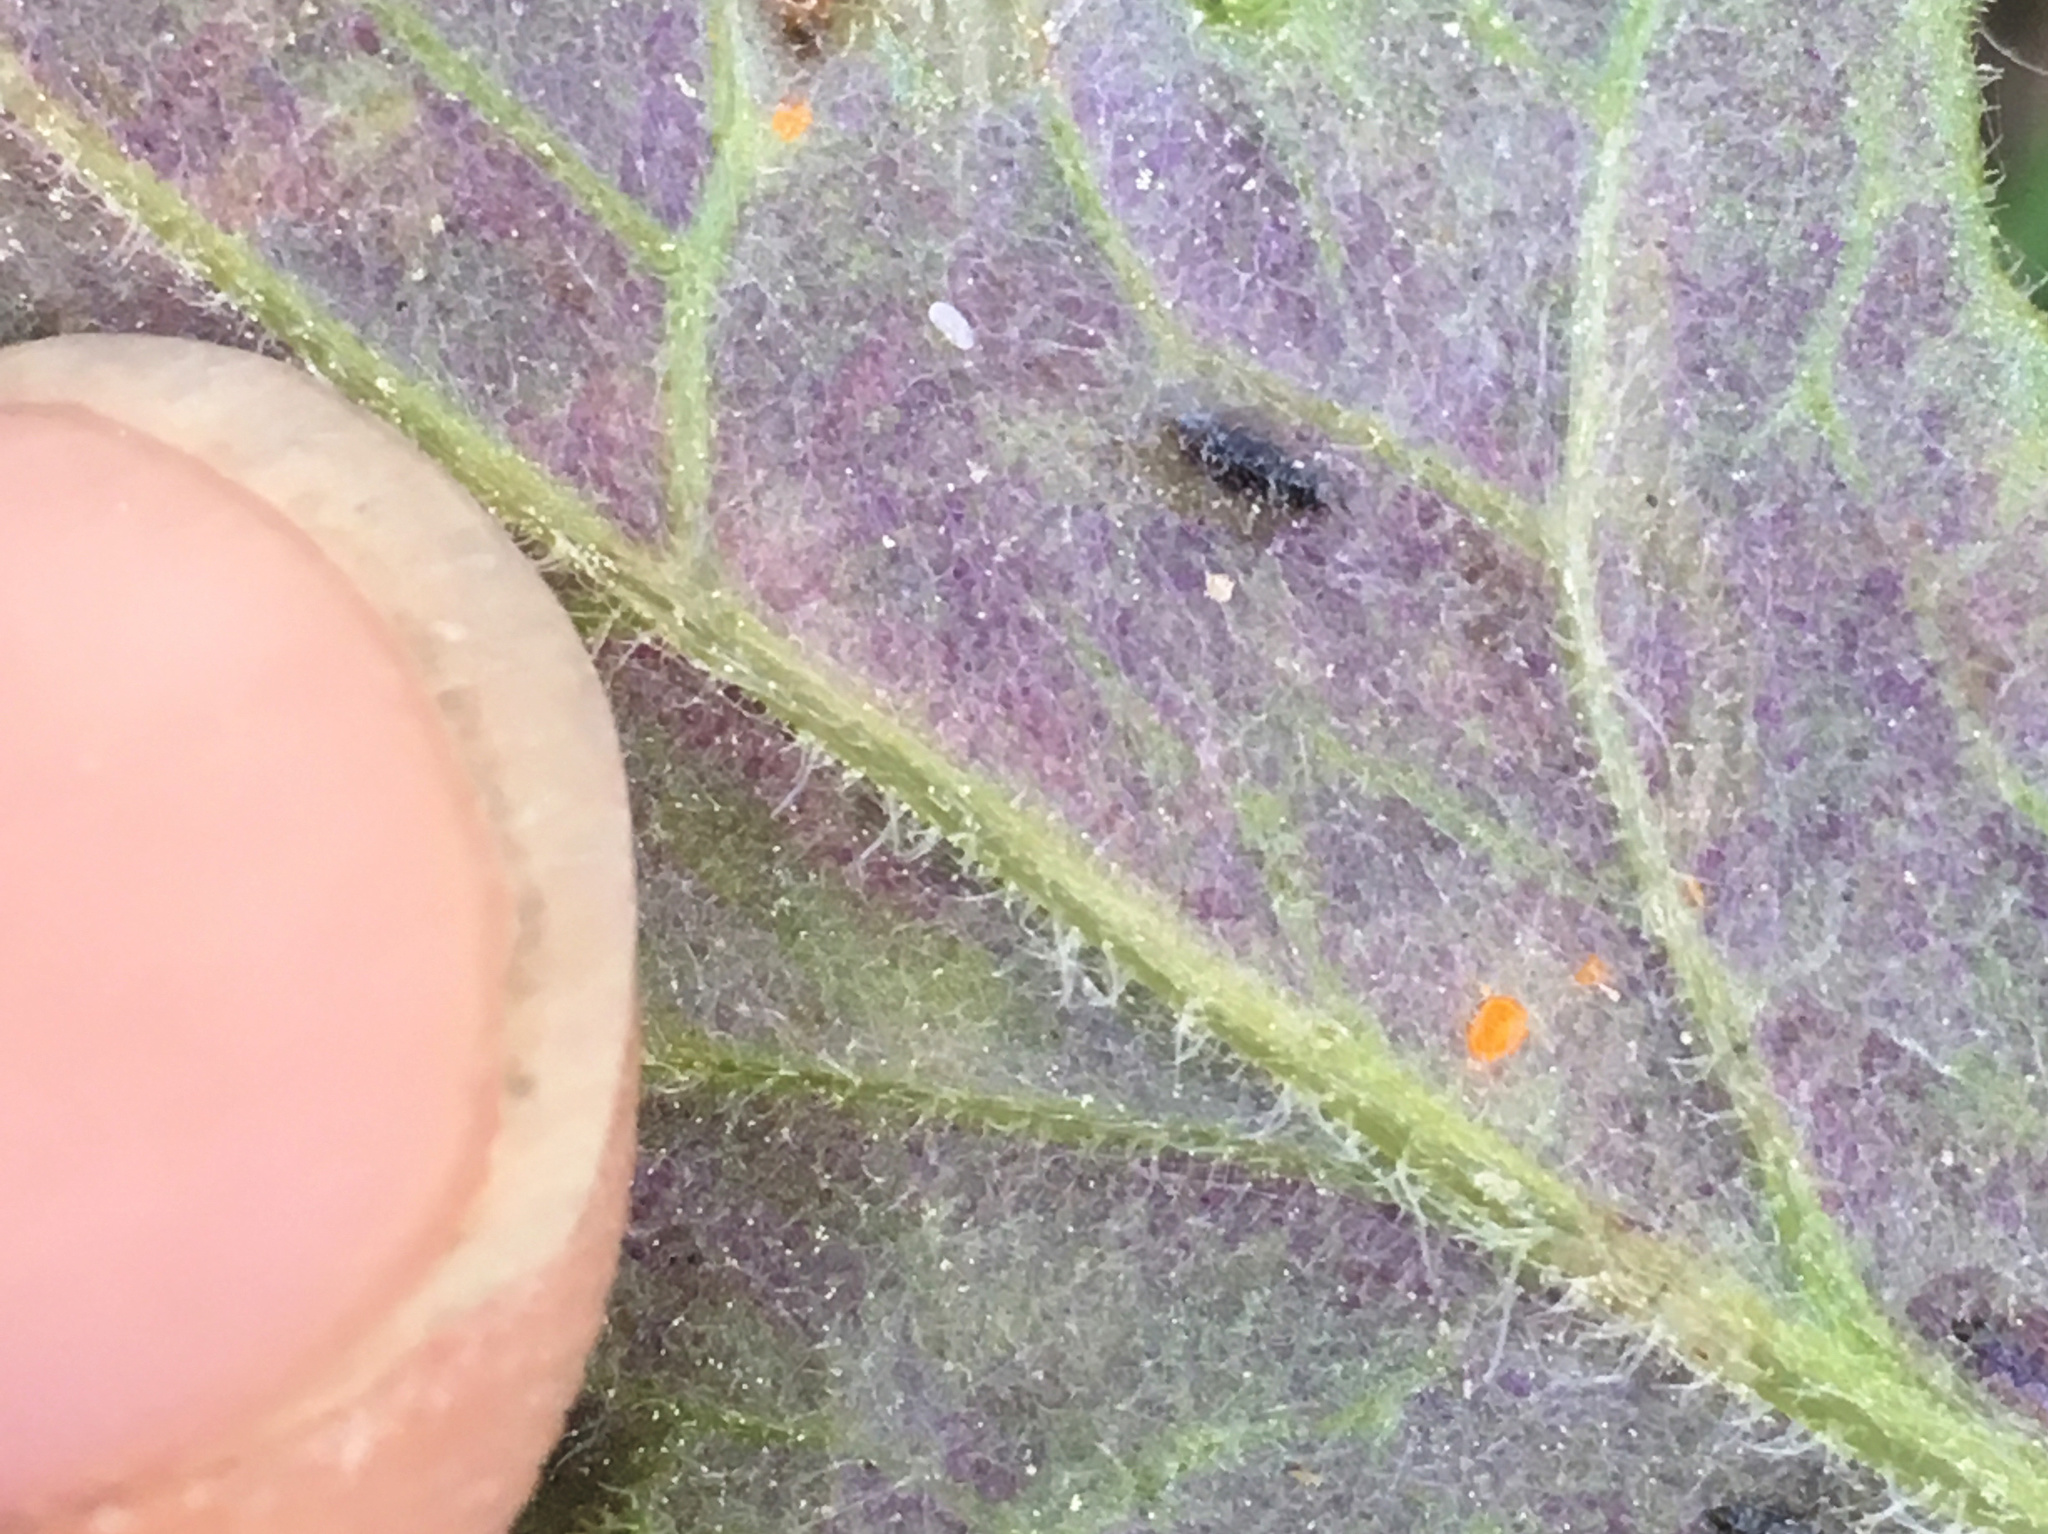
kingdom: Fungi
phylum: Basidiomycota
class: Pucciniomycetes
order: Pucciniales
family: Coleosporiaceae
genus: Coleosporium
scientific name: Coleosporium tussilaginis
